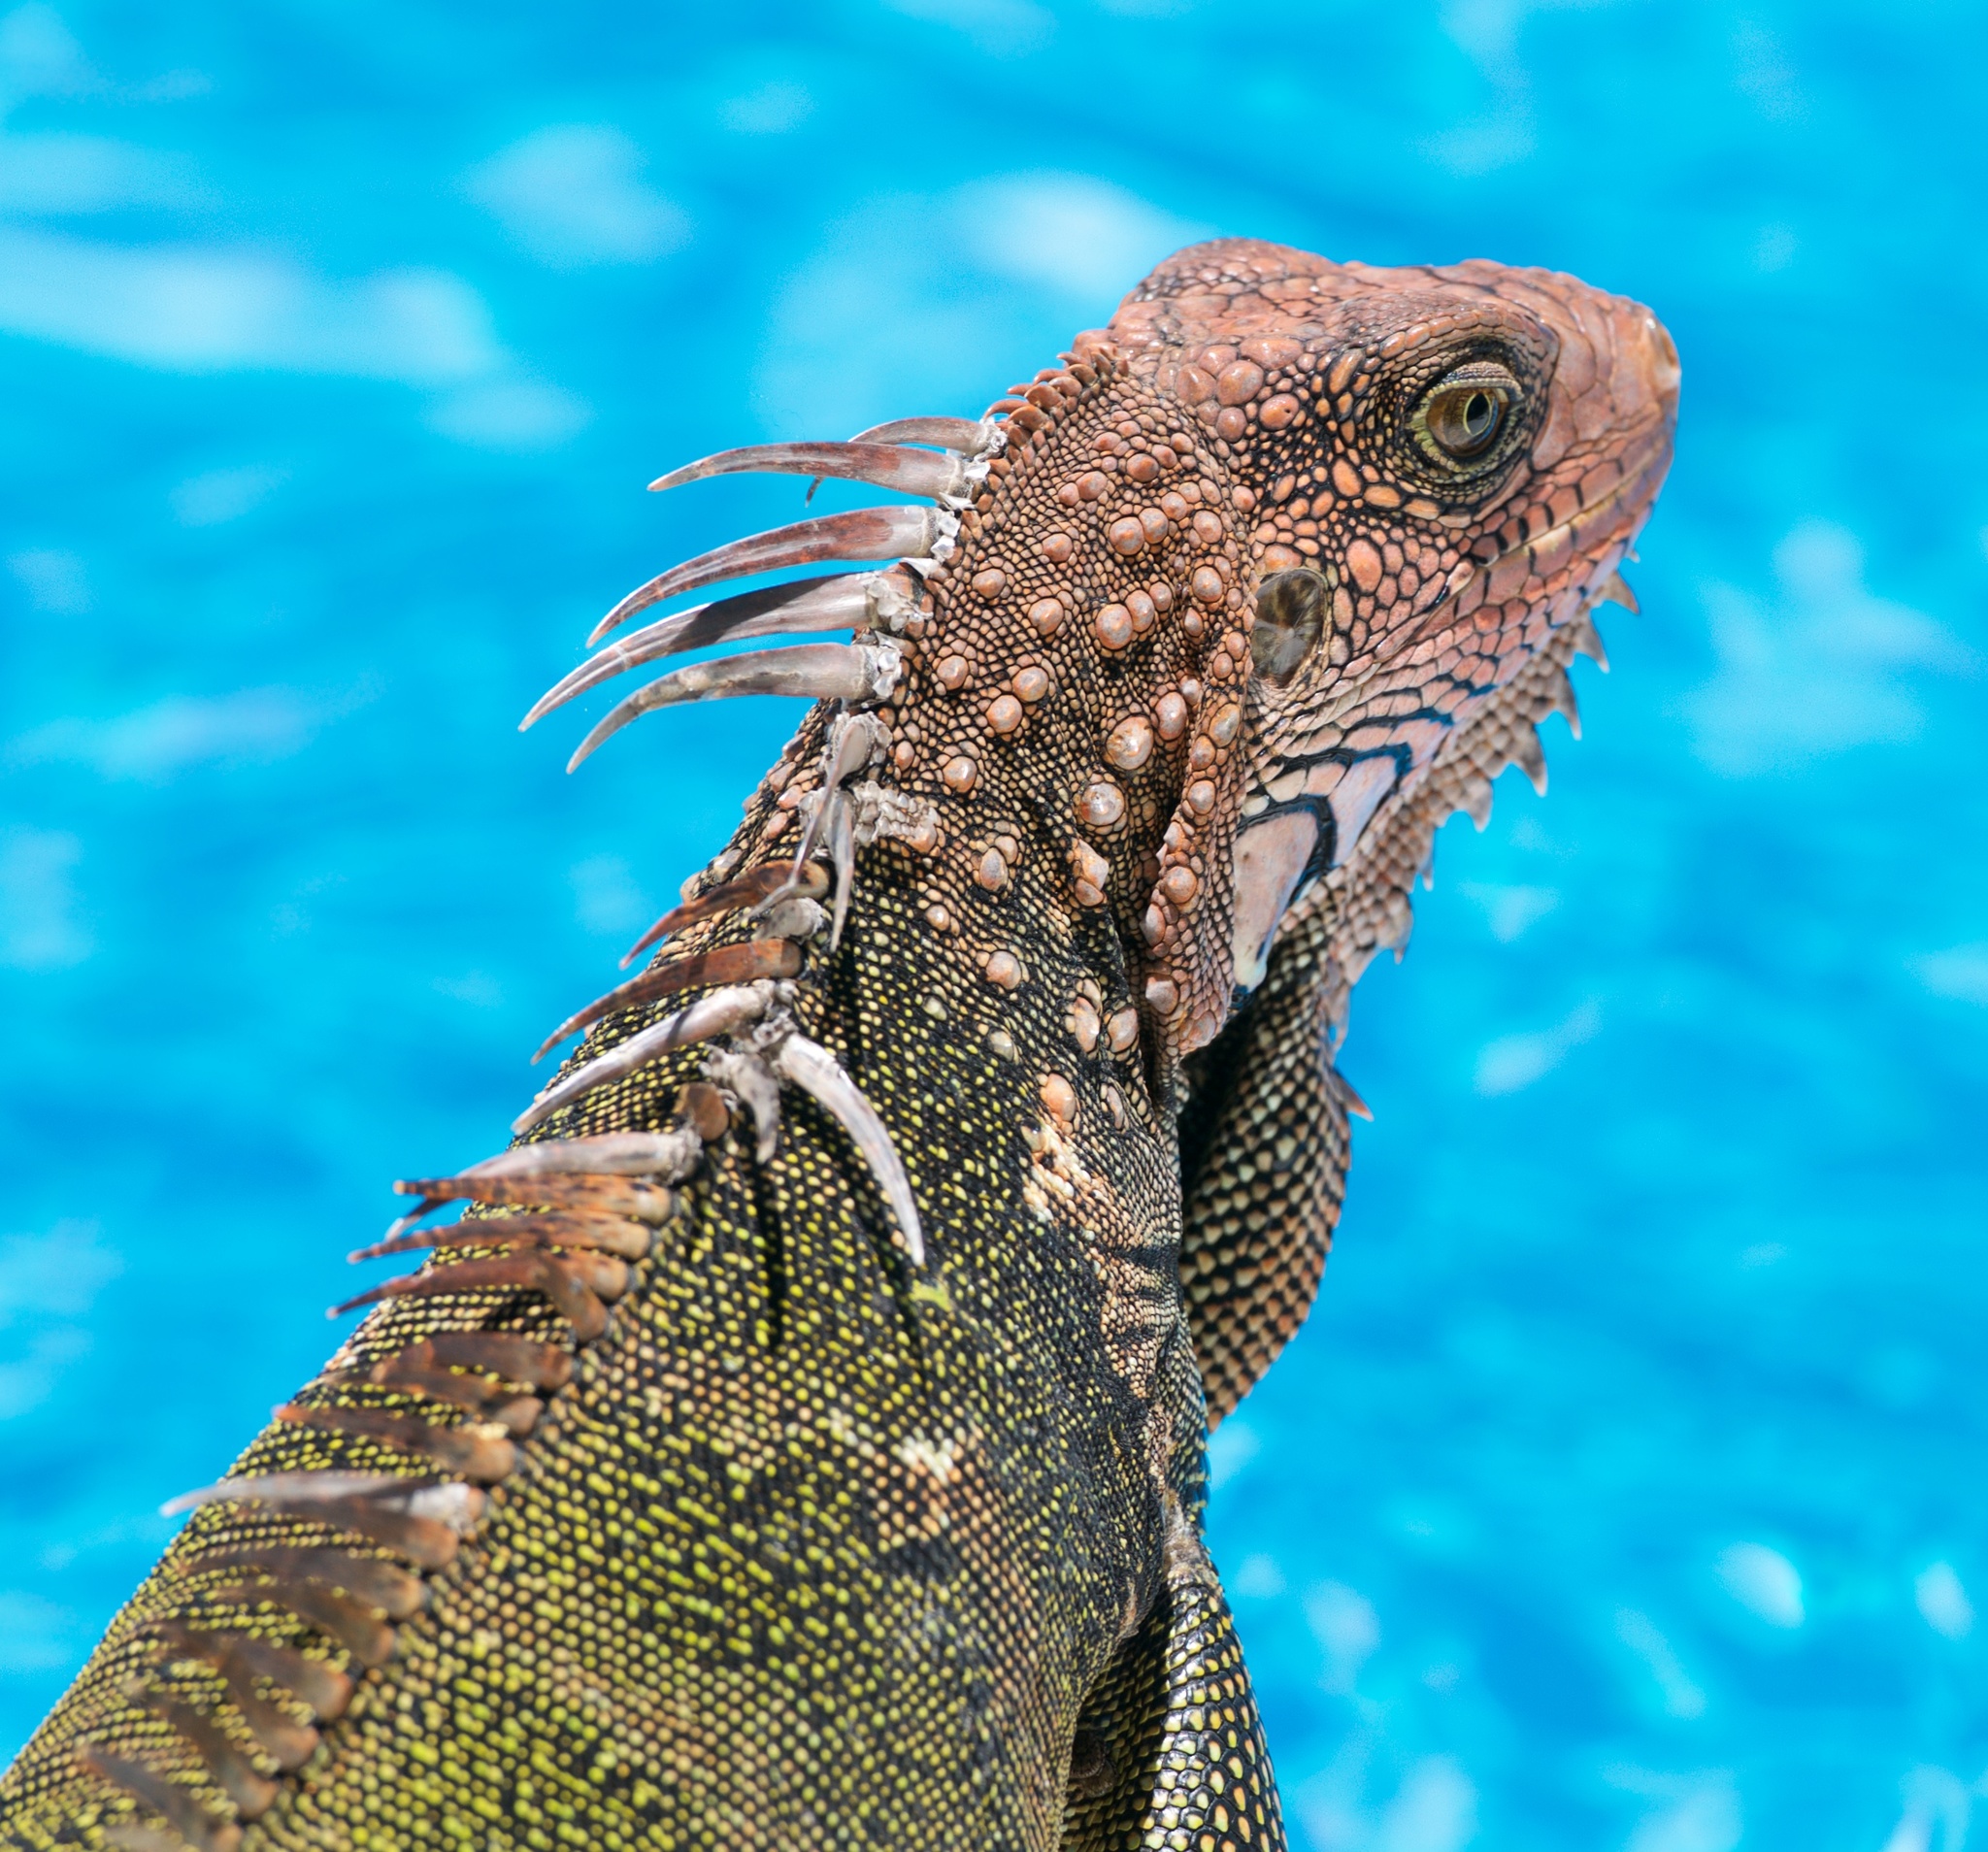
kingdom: Animalia
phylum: Chordata
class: Squamata
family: Iguanidae
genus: Iguana
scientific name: Iguana iguana
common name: Green iguana
